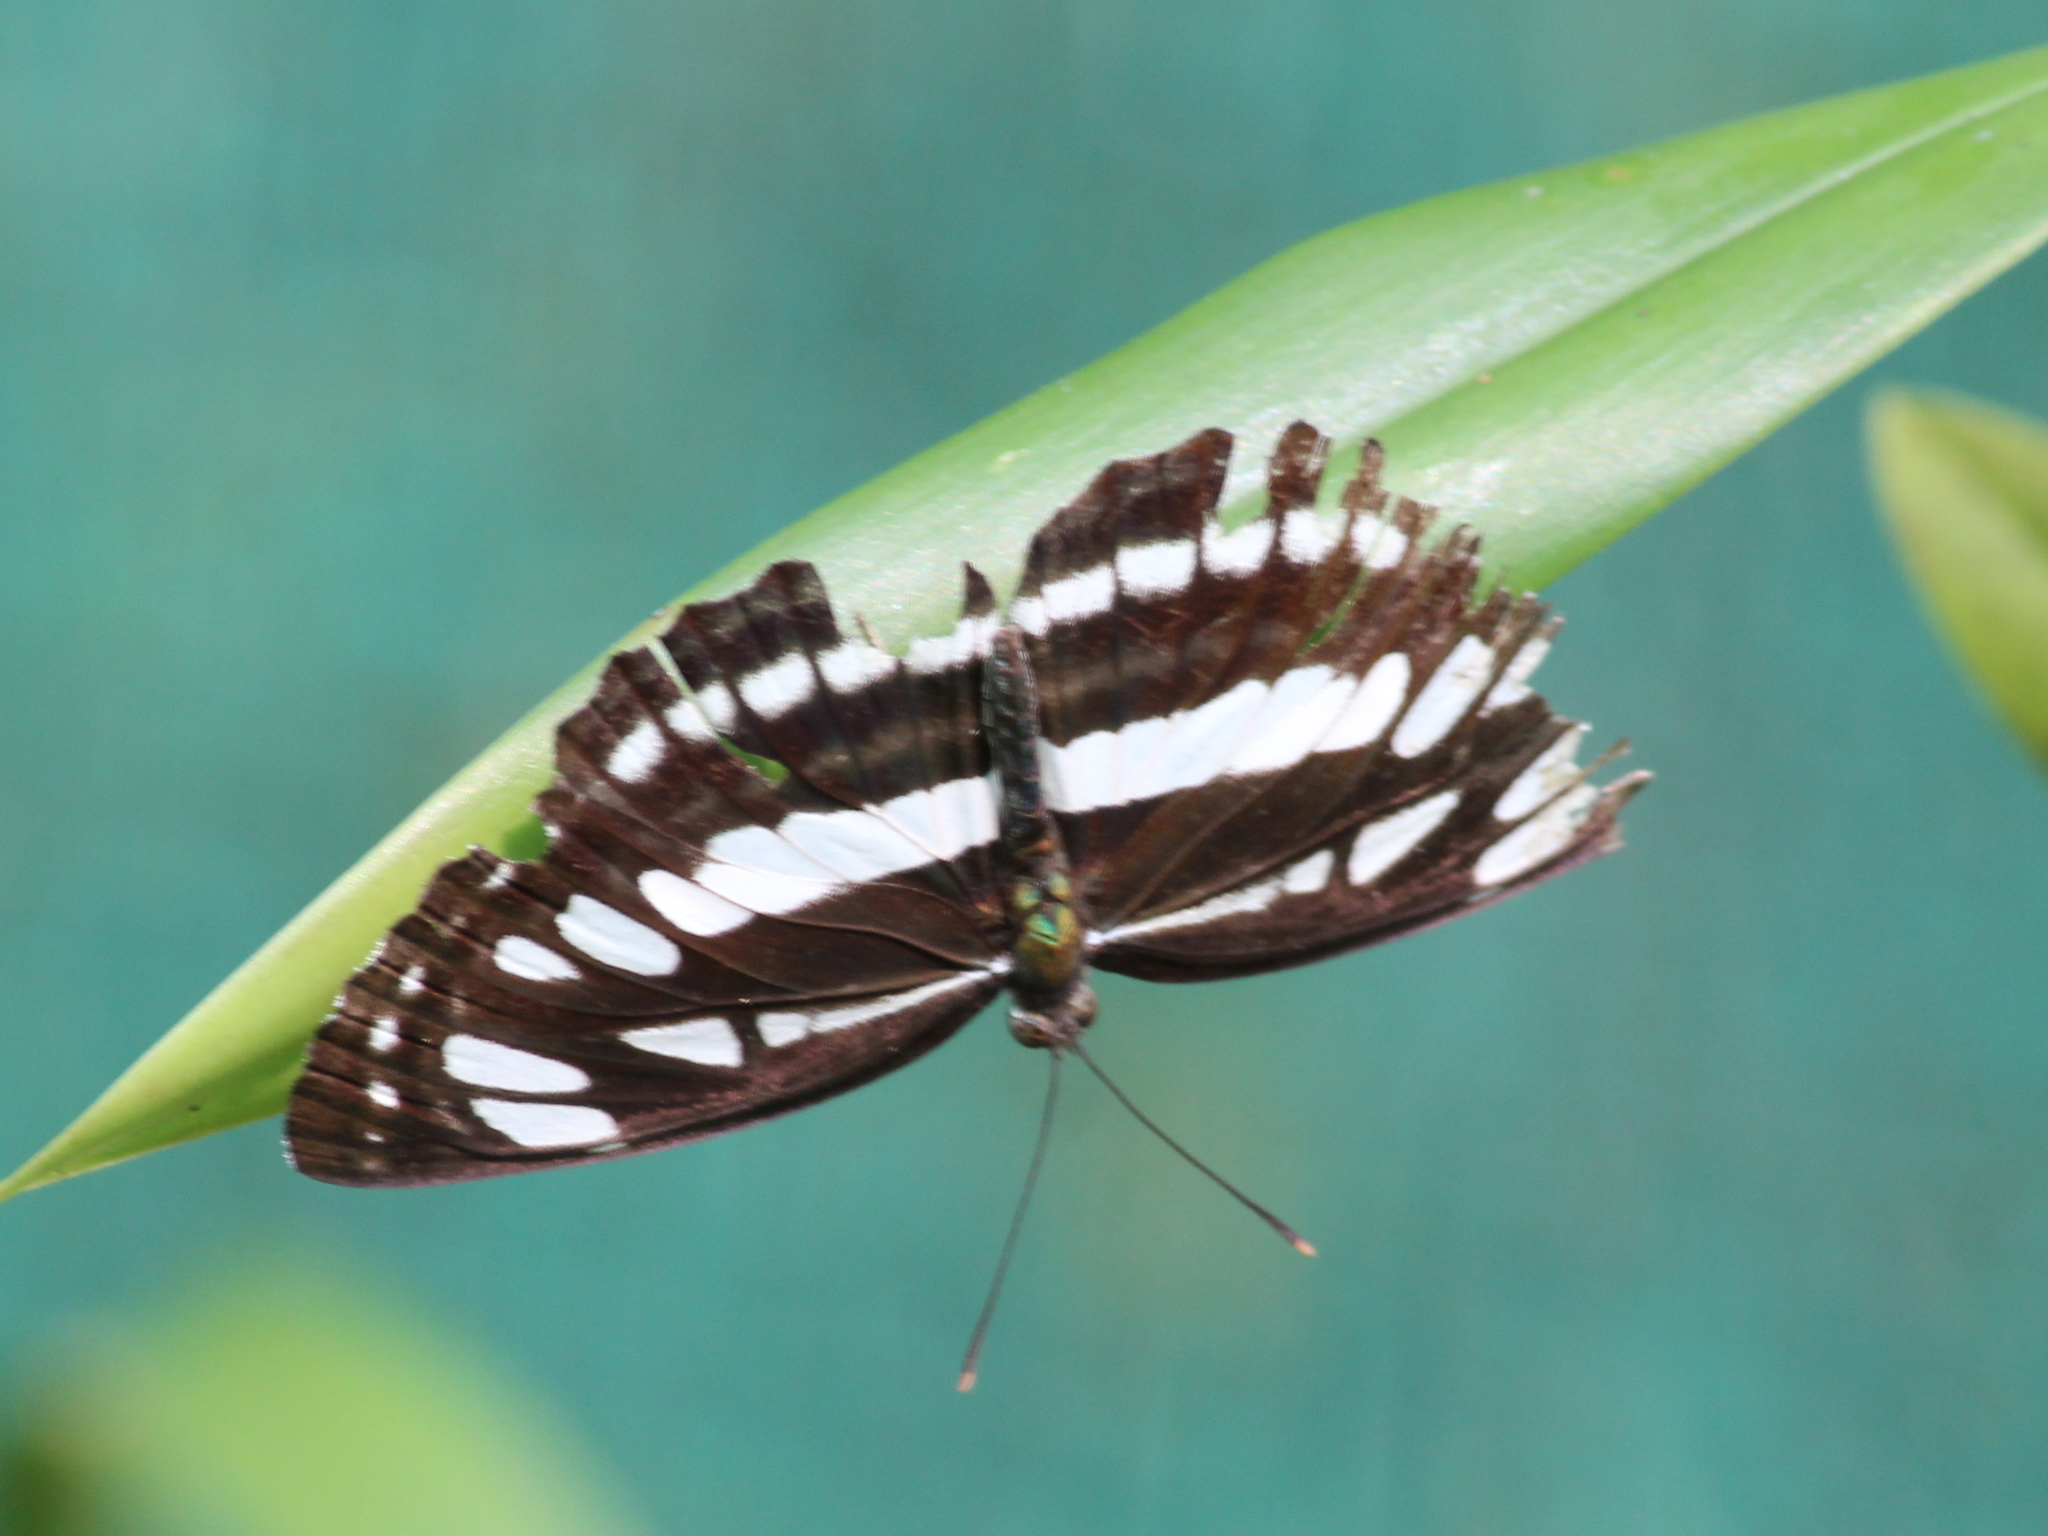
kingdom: Animalia
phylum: Arthropoda
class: Insecta
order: Lepidoptera
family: Nymphalidae
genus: Neptis
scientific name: Neptis hylas
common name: Common sailer
